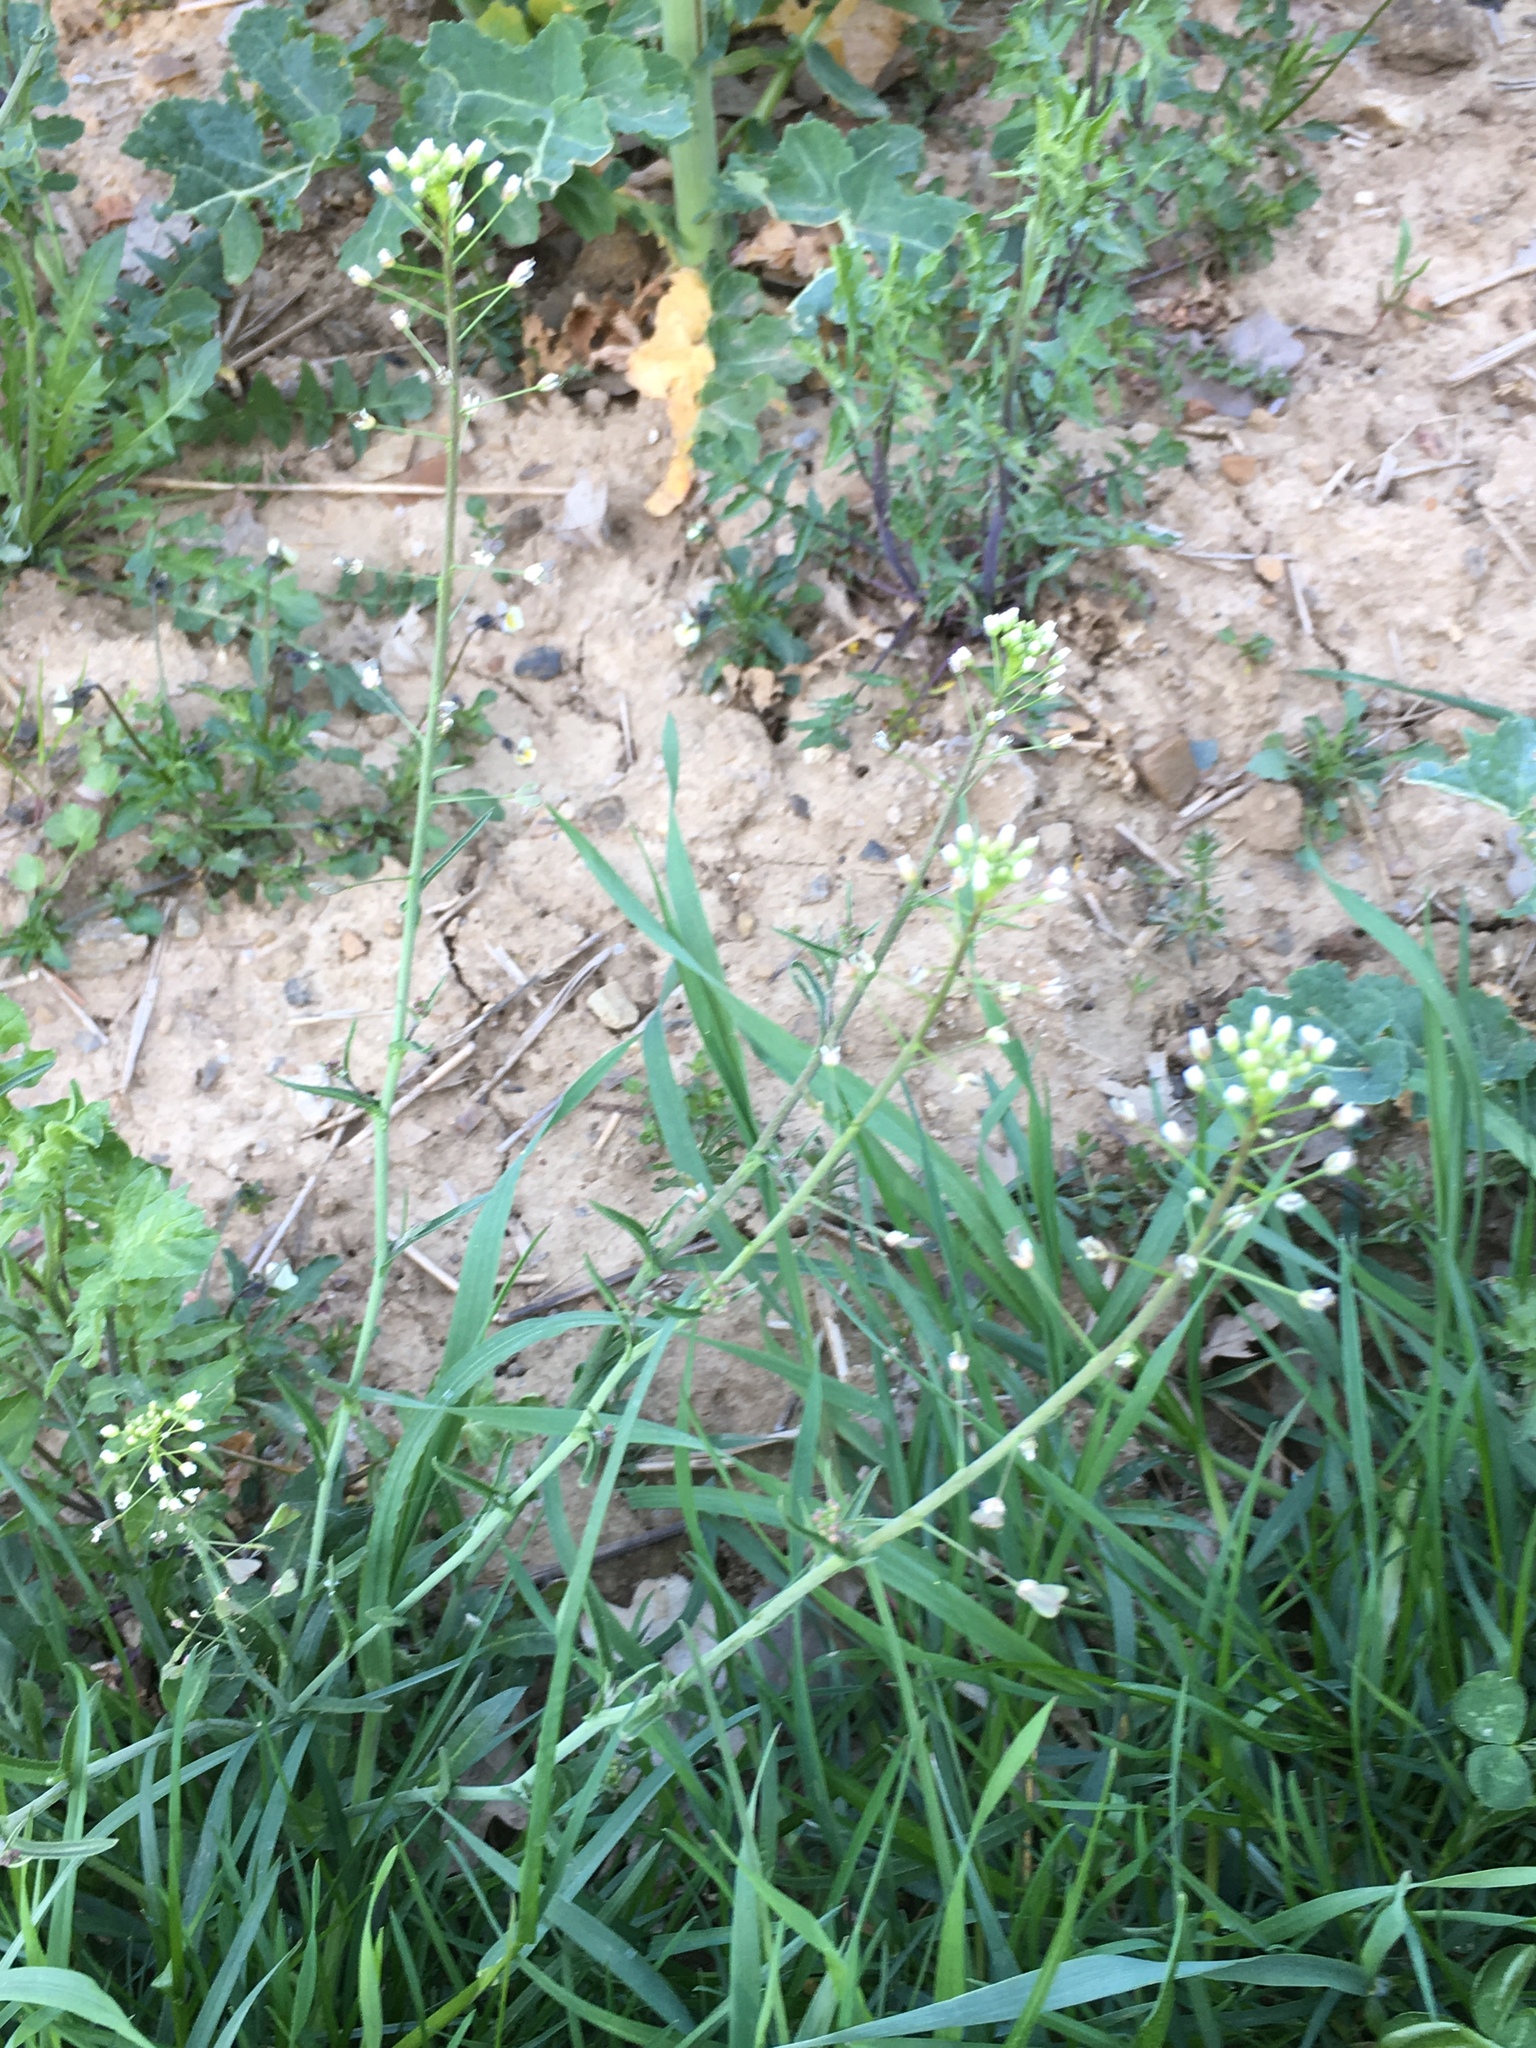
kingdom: Plantae
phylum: Tracheophyta
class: Magnoliopsida
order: Brassicales
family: Brassicaceae
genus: Capsella
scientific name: Capsella bursa-pastoris
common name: Shepherd's purse
